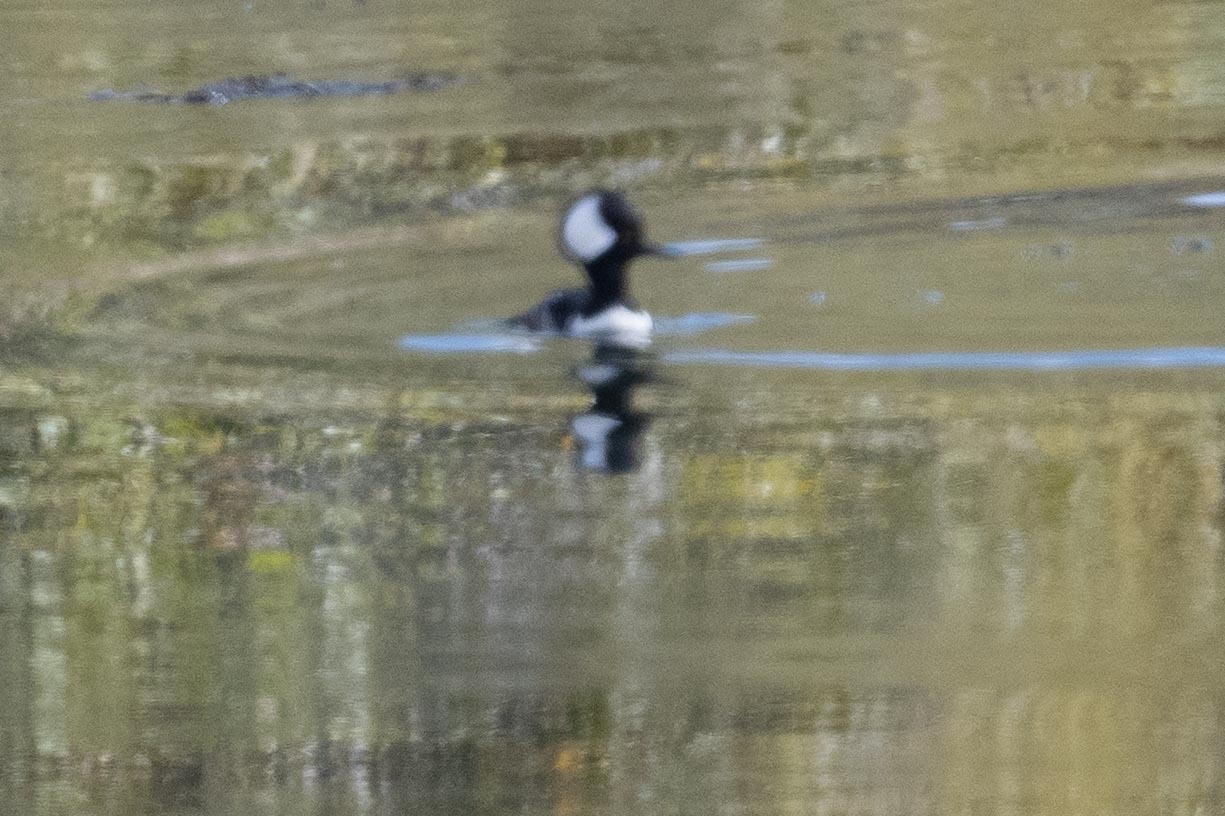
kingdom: Animalia
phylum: Chordata
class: Aves
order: Anseriformes
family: Anatidae
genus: Lophodytes
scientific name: Lophodytes cucullatus
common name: Hooded merganser
